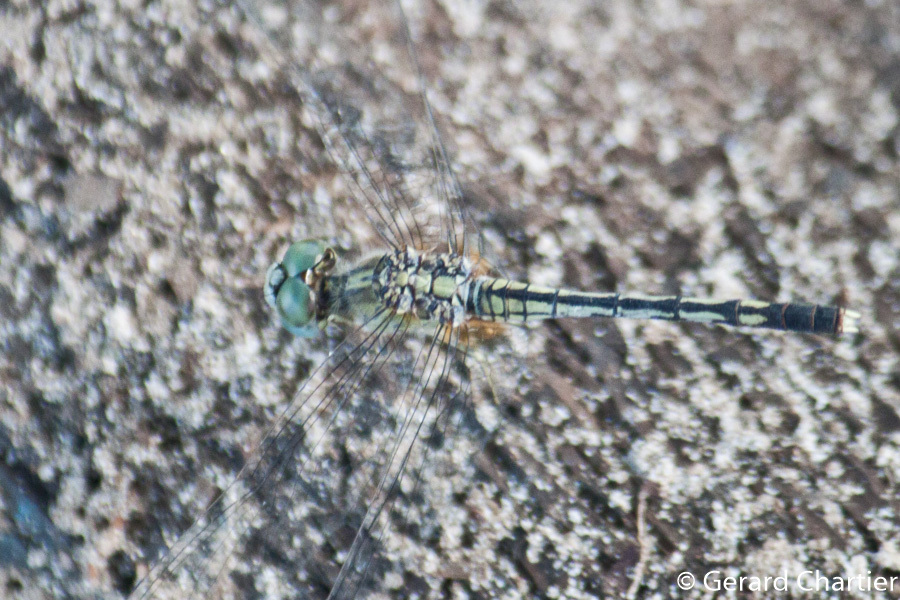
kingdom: Animalia
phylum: Arthropoda
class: Insecta
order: Odonata
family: Libellulidae
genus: Diplacodes
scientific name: Diplacodes trivialis
